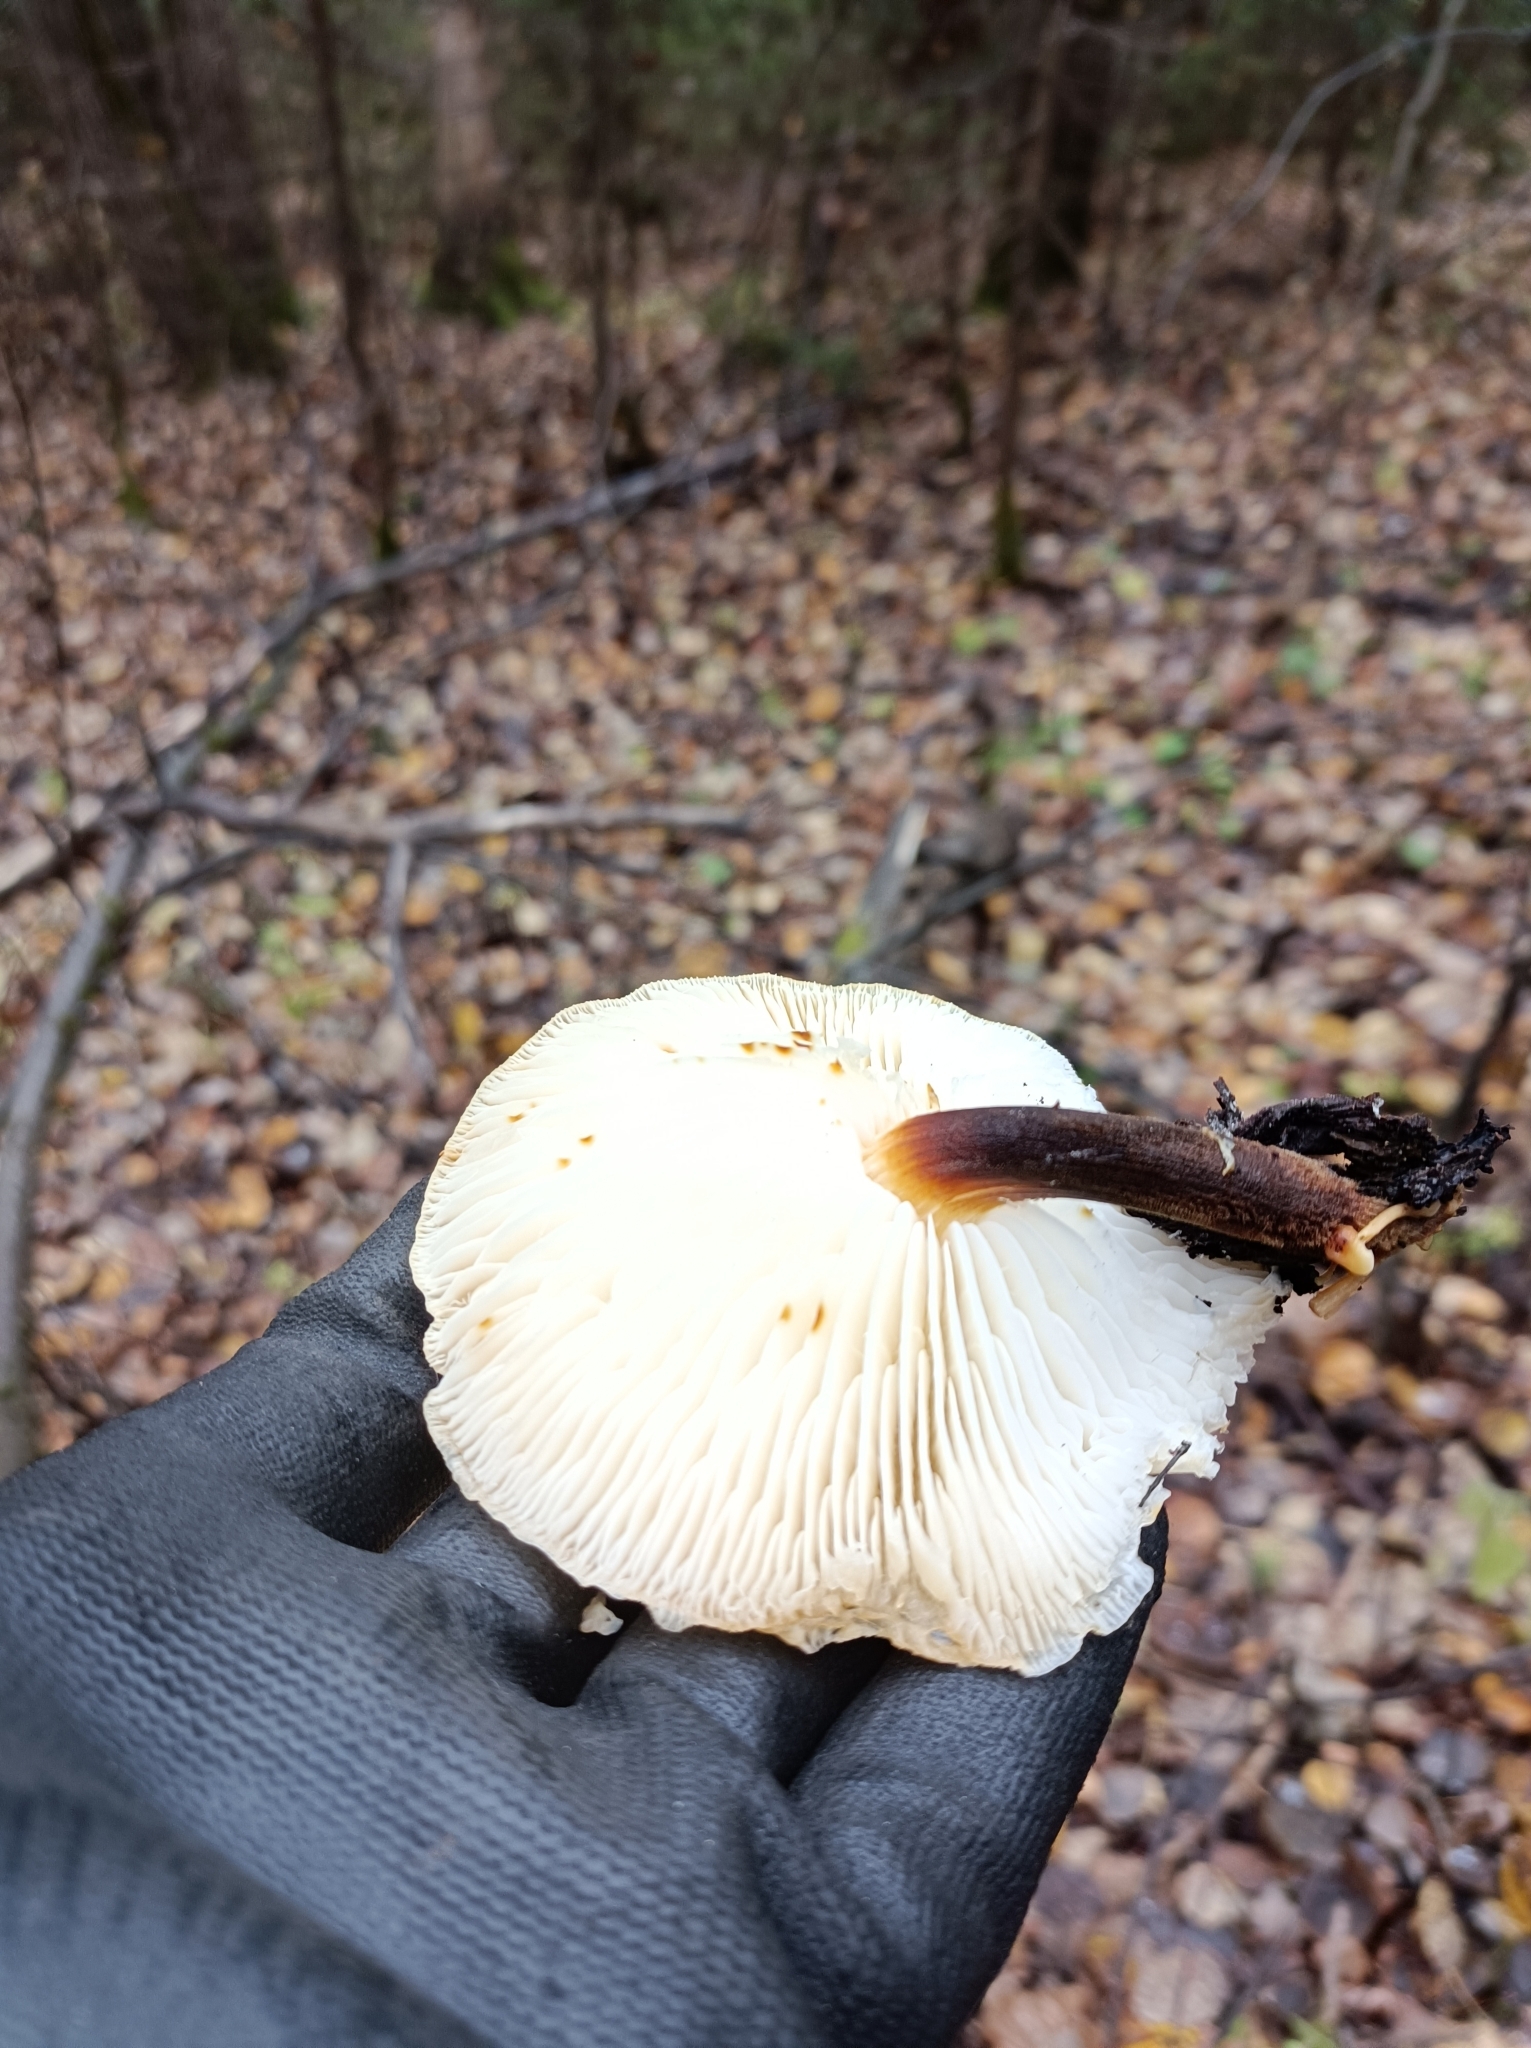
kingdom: Fungi
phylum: Basidiomycota
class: Agaricomycetes
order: Agaricales
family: Physalacriaceae
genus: Flammulina
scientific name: Flammulina
